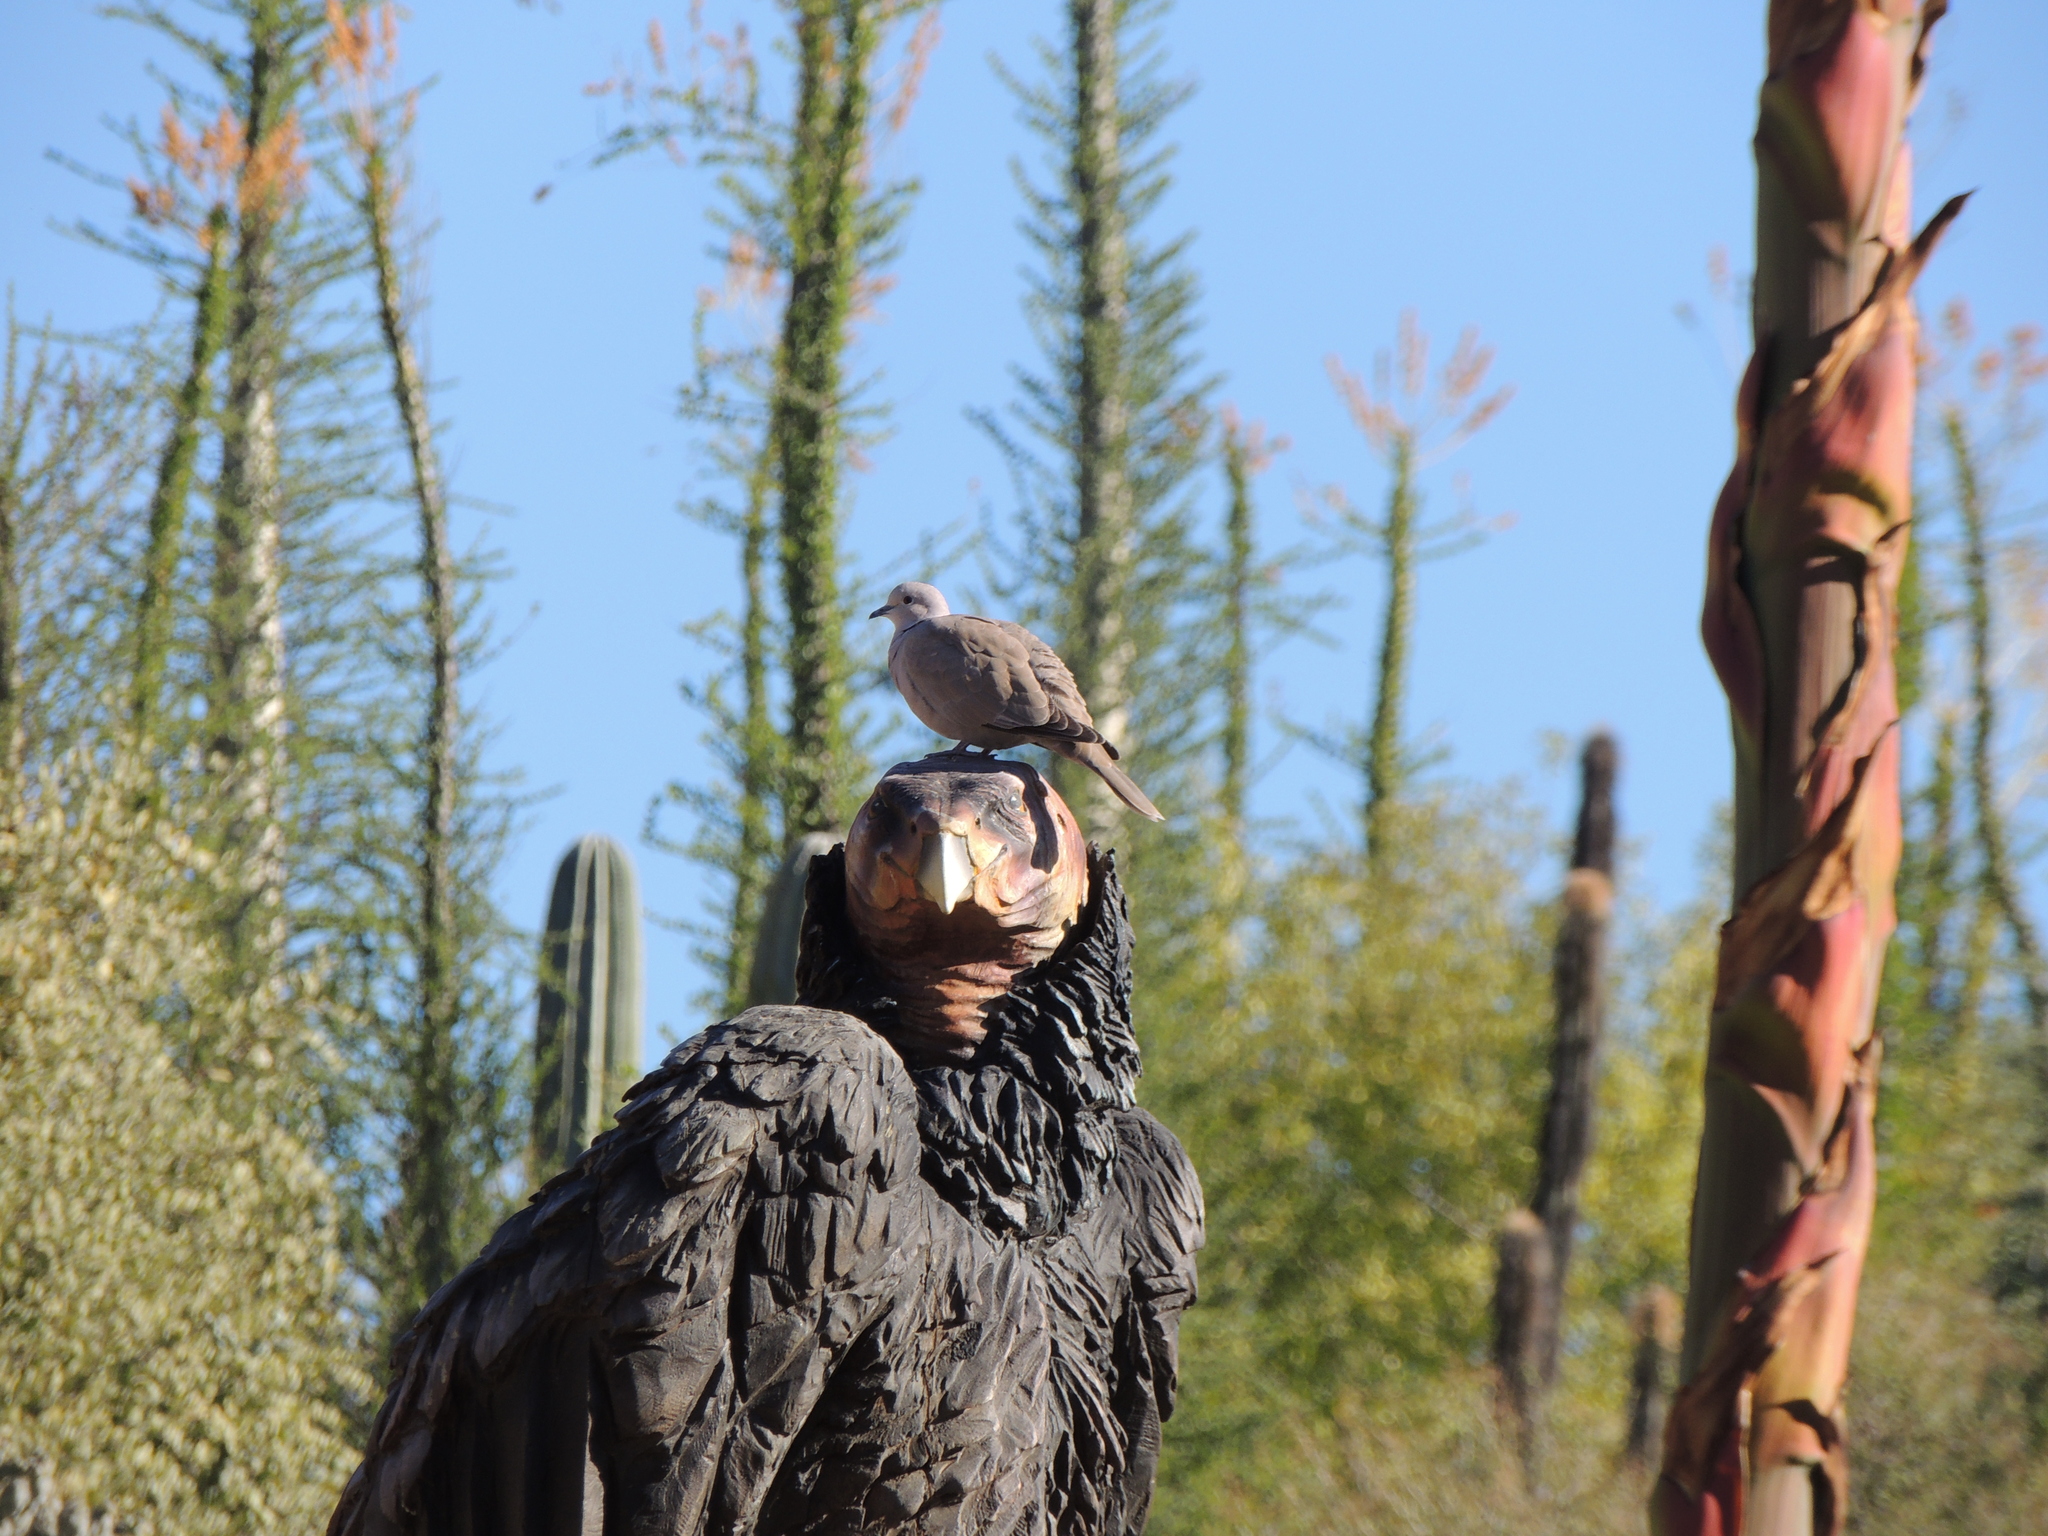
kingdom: Animalia
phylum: Chordata
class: Aves
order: Columbiformes
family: Columbidae
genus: Streptopelia
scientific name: Streptopelia decaocto
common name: Eurasian collared dove
